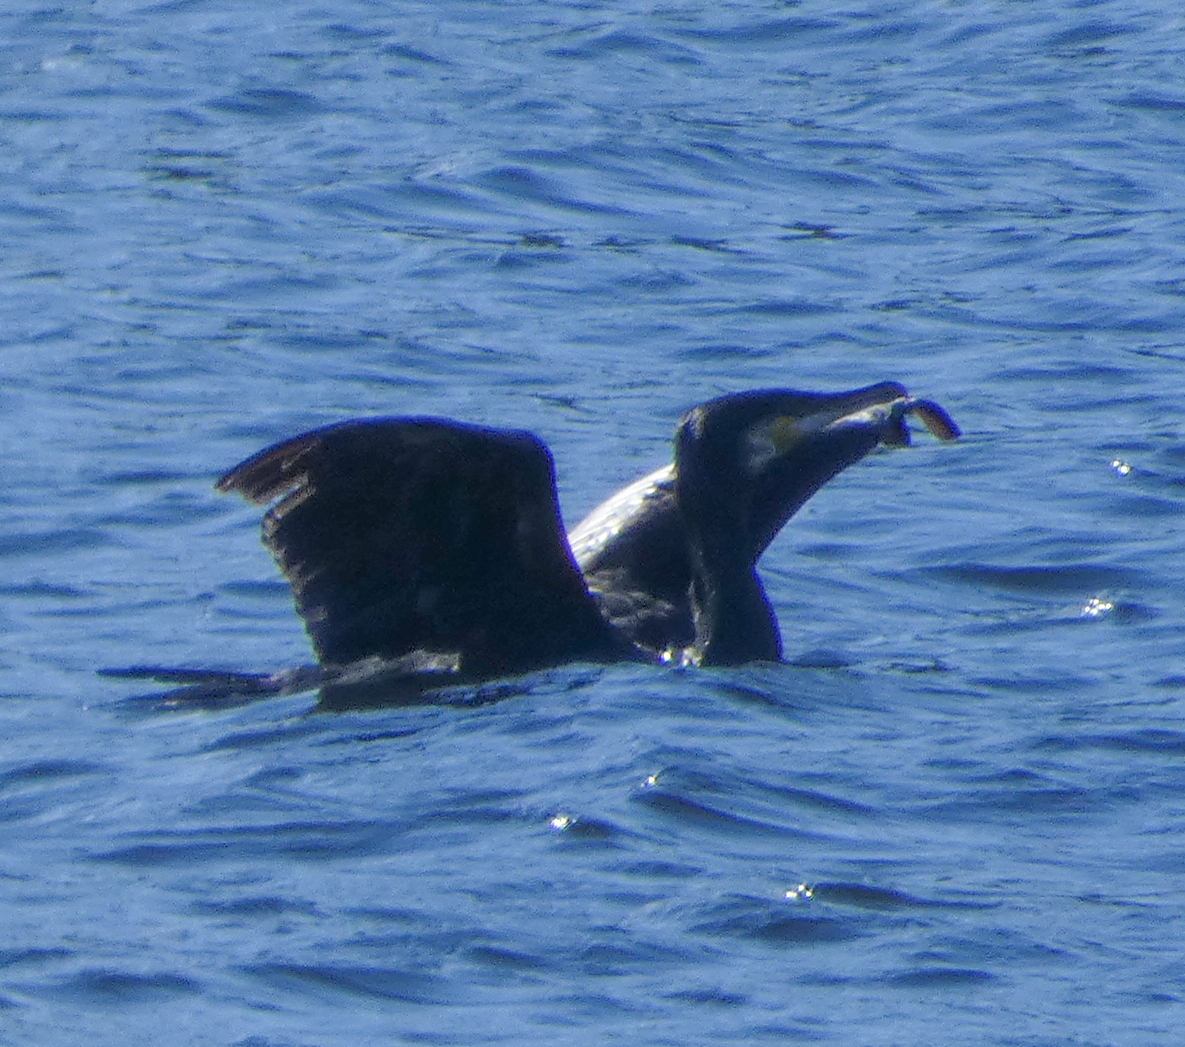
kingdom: Animalia
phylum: Chordata
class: Aves
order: Suliformes
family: Phalacrocoracidae
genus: Phalacrocorax
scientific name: Phalacrocorax carbo
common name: Great cormorant
